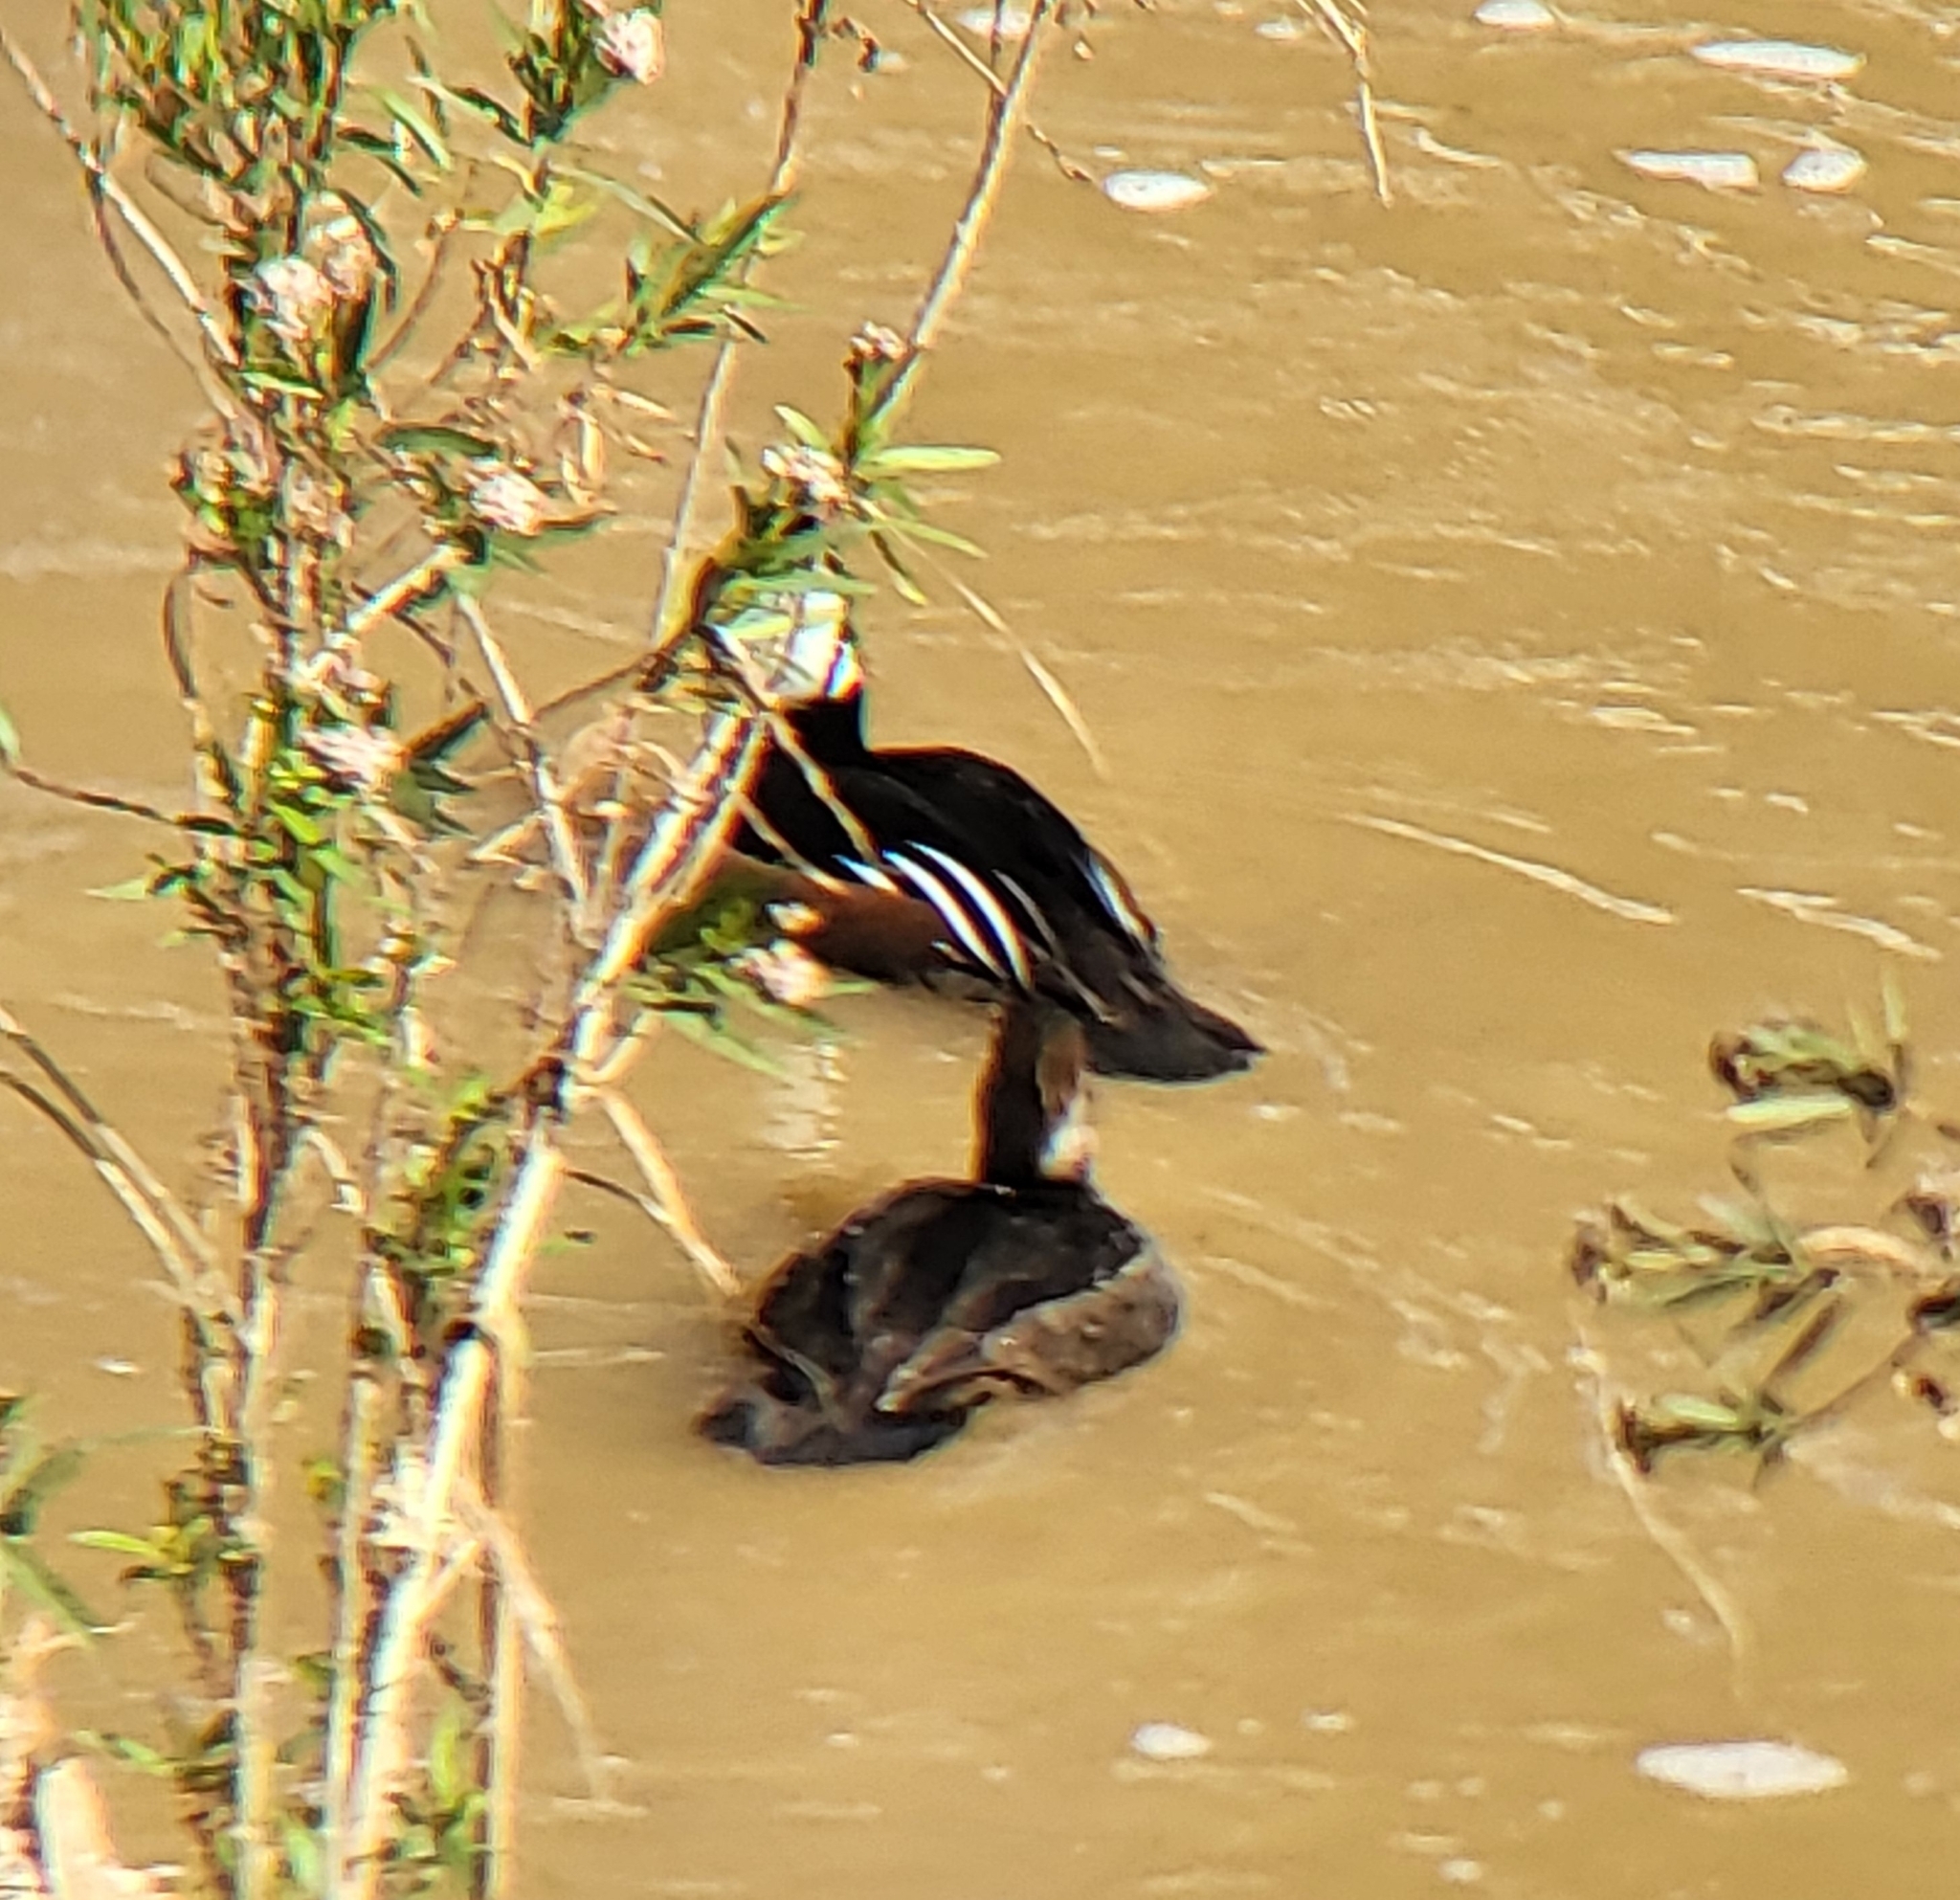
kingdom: Animalia
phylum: Chordata
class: Aves
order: Anseriformes
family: Anatidae
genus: Lophodytes
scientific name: Lophodytes cucullatus
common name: Hooded merganser
